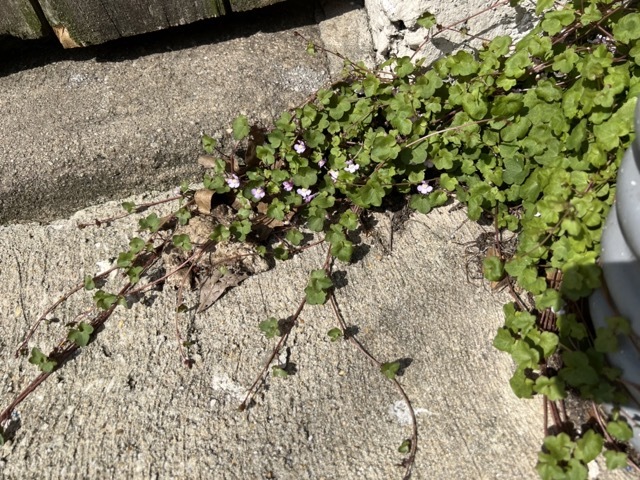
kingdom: Plantae
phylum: Tracheophyta
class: Magnoliopsida
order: Lamiales
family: Plantaginaceae
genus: Cymbalaria
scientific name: Cymbalaria muralis
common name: Ivy-leaved toadflax
